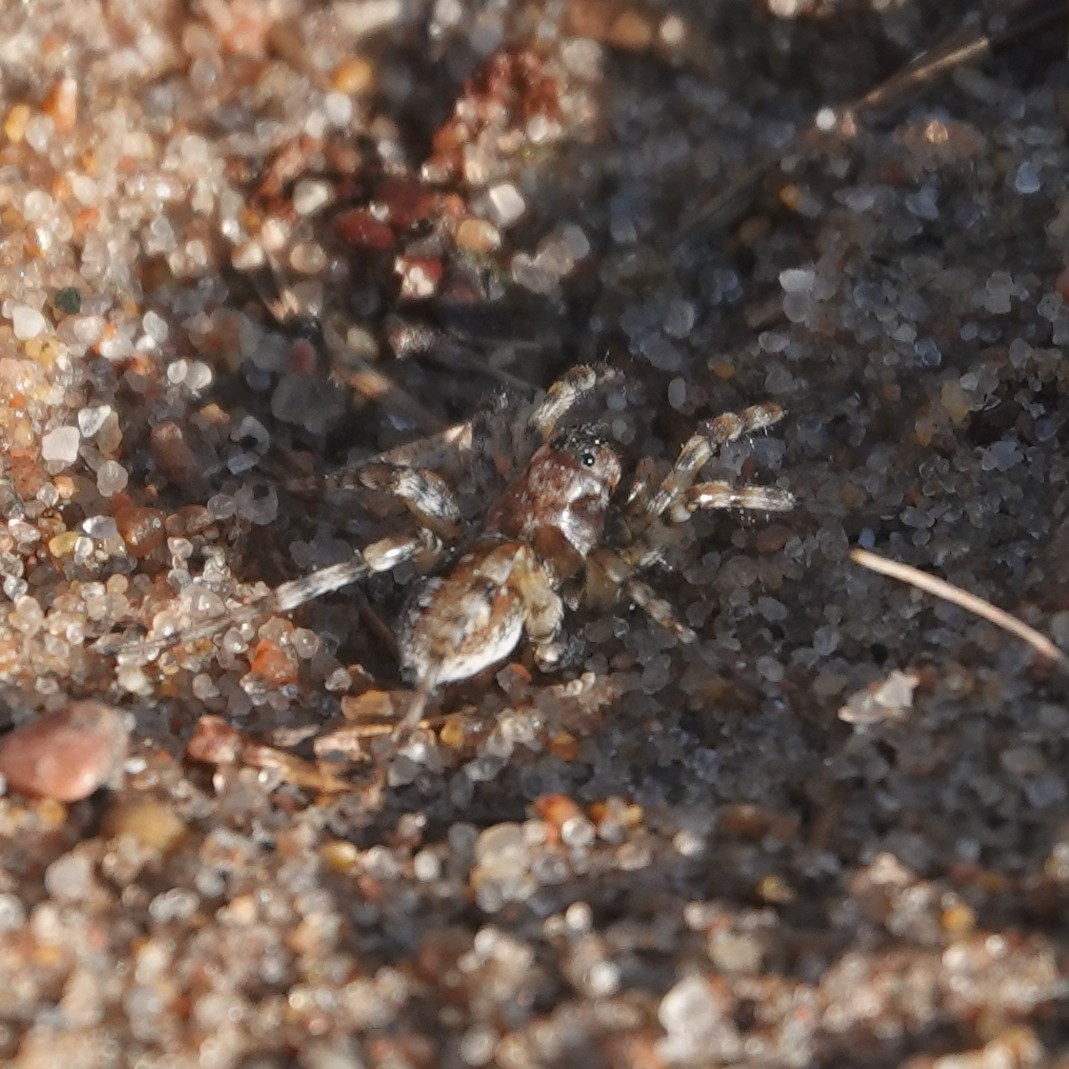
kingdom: Animalia
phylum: Arthropoda
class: Arachnida
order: Araneae
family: Lycosidae
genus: Arctosa
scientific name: Arctosa perita
